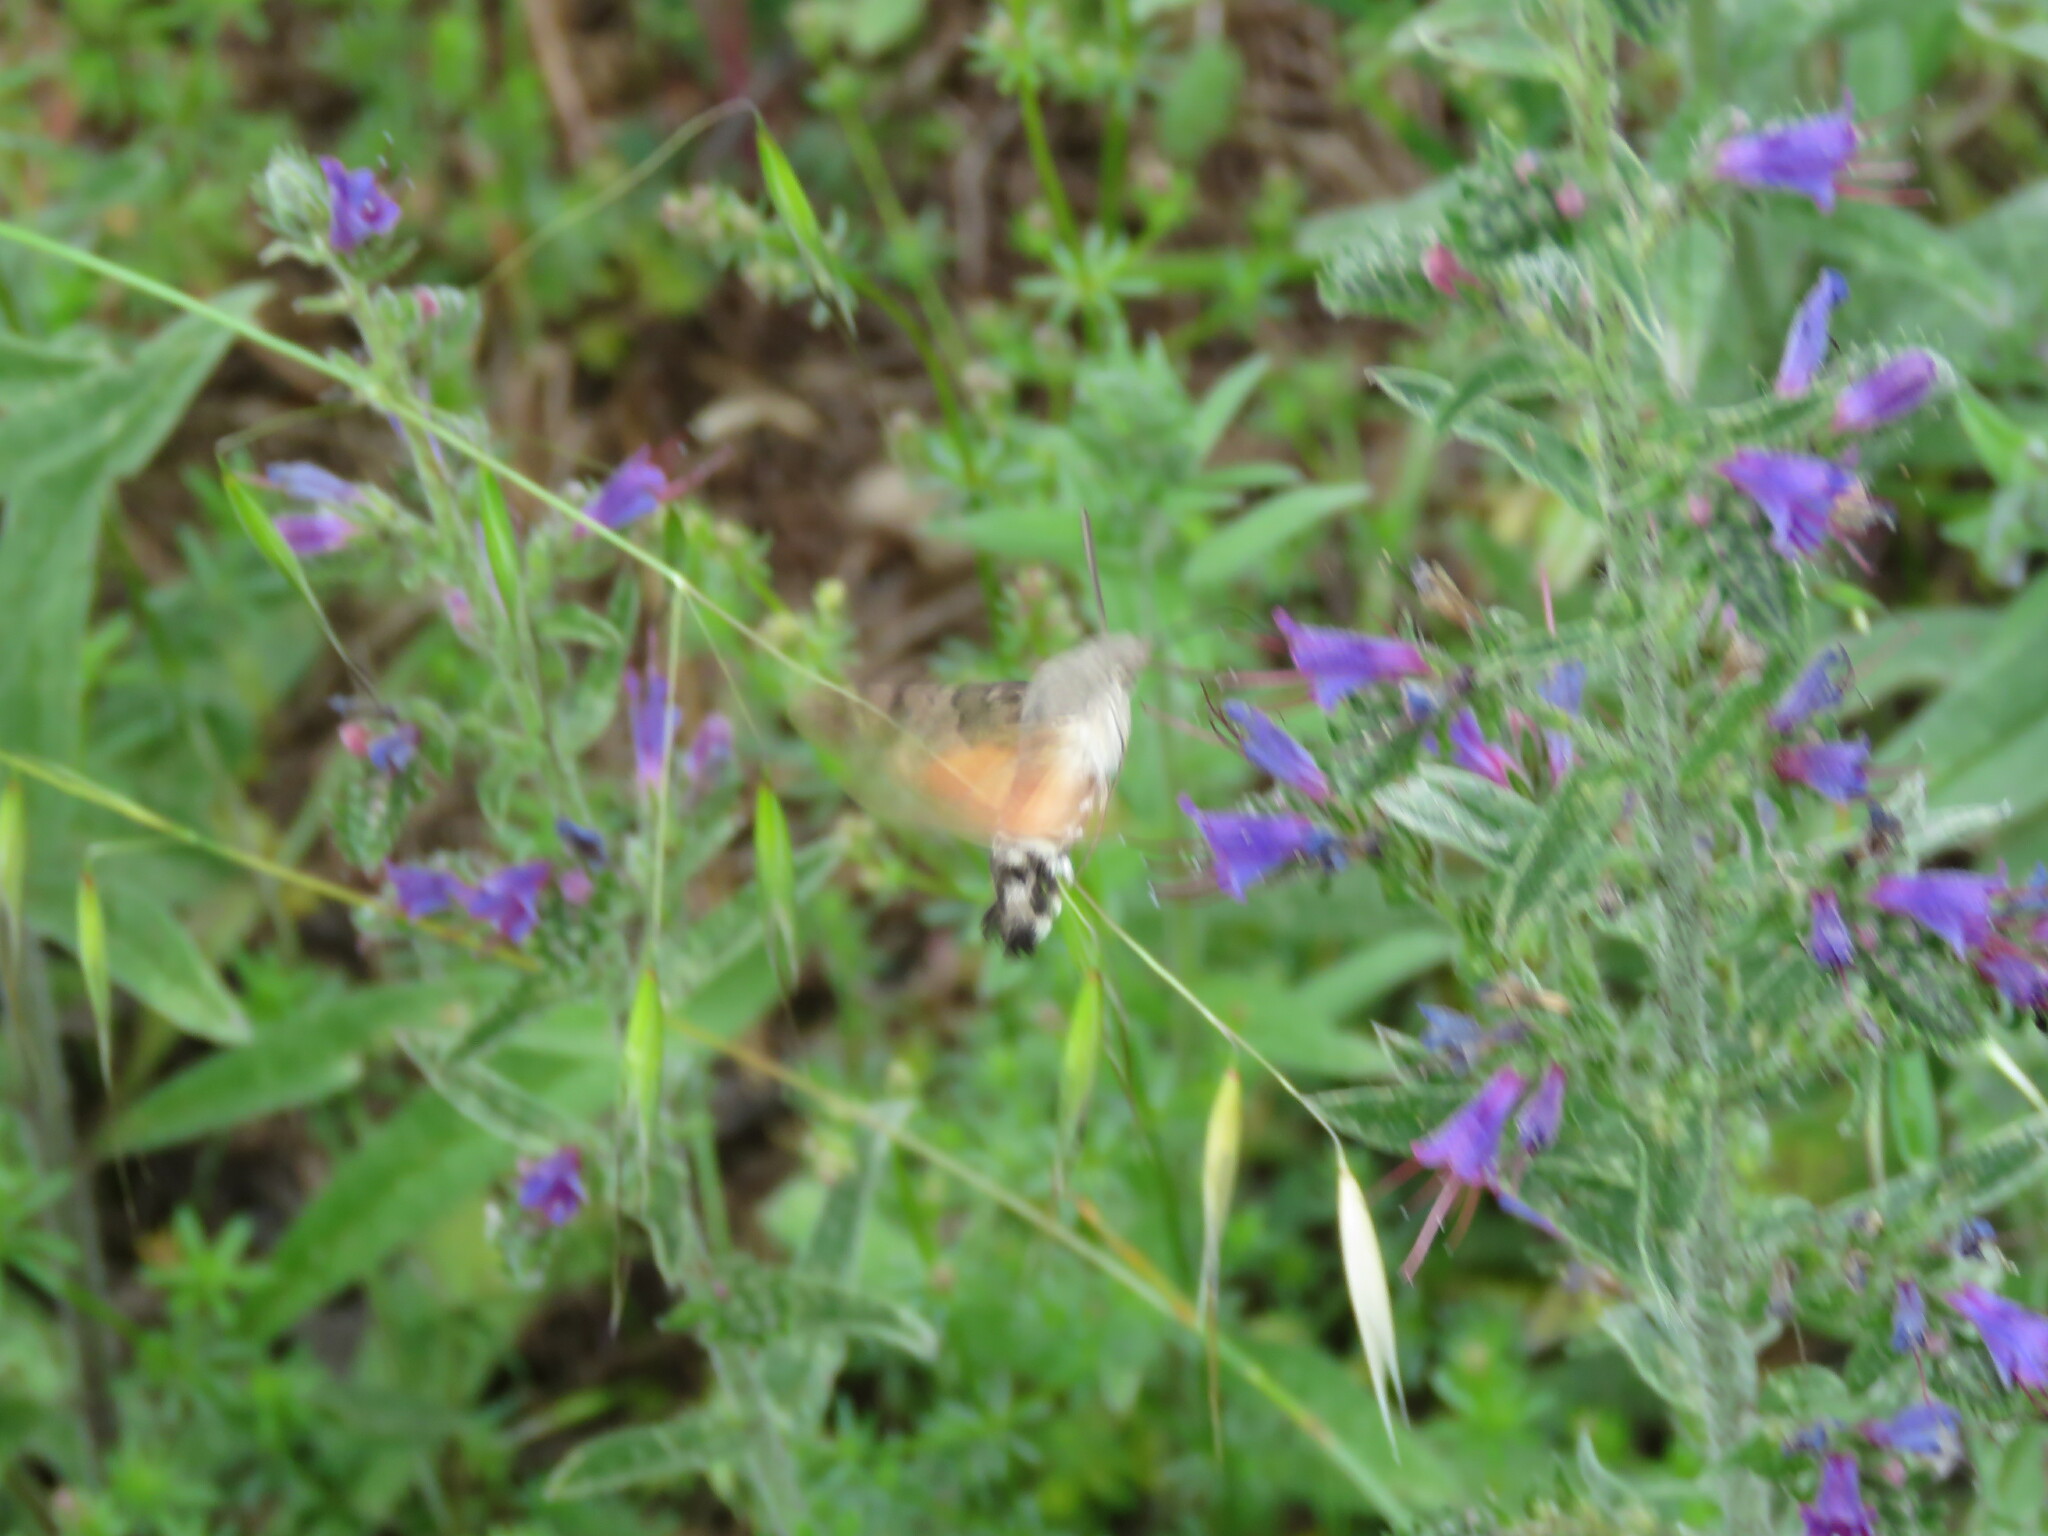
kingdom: Animalia
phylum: Arthropoda
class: Insecta
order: Lepidoptera
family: Sphingidae
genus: Macroglossum
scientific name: Macroglossum stellatarum
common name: Humming-bird hawk-moth
